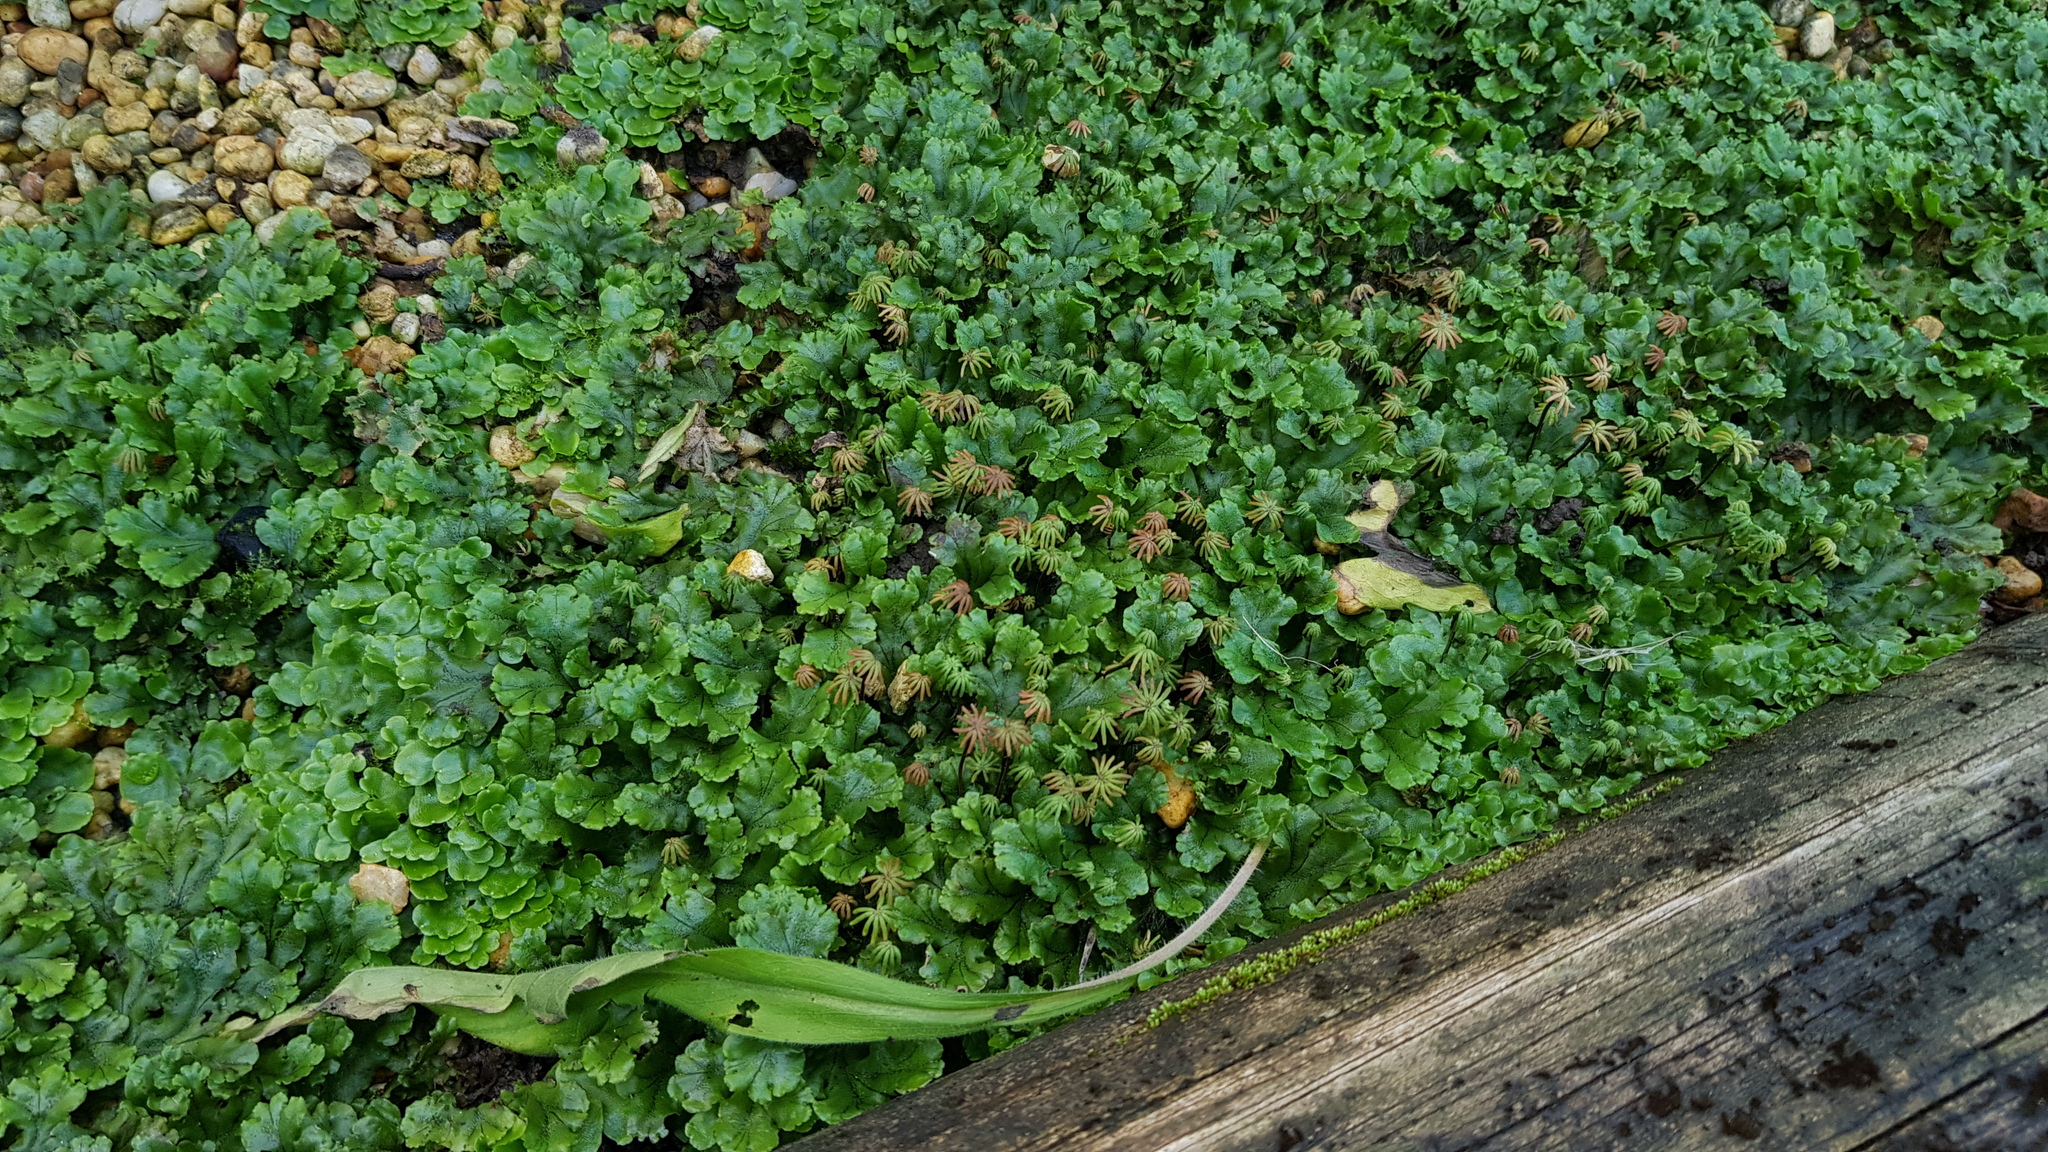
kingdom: Plantae
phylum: Marchantiophyta
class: Marchantiopsida
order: Marchantiales
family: Marchantiaceae
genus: Marchantia
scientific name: Marchantia polymorpha
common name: Common liverwort
